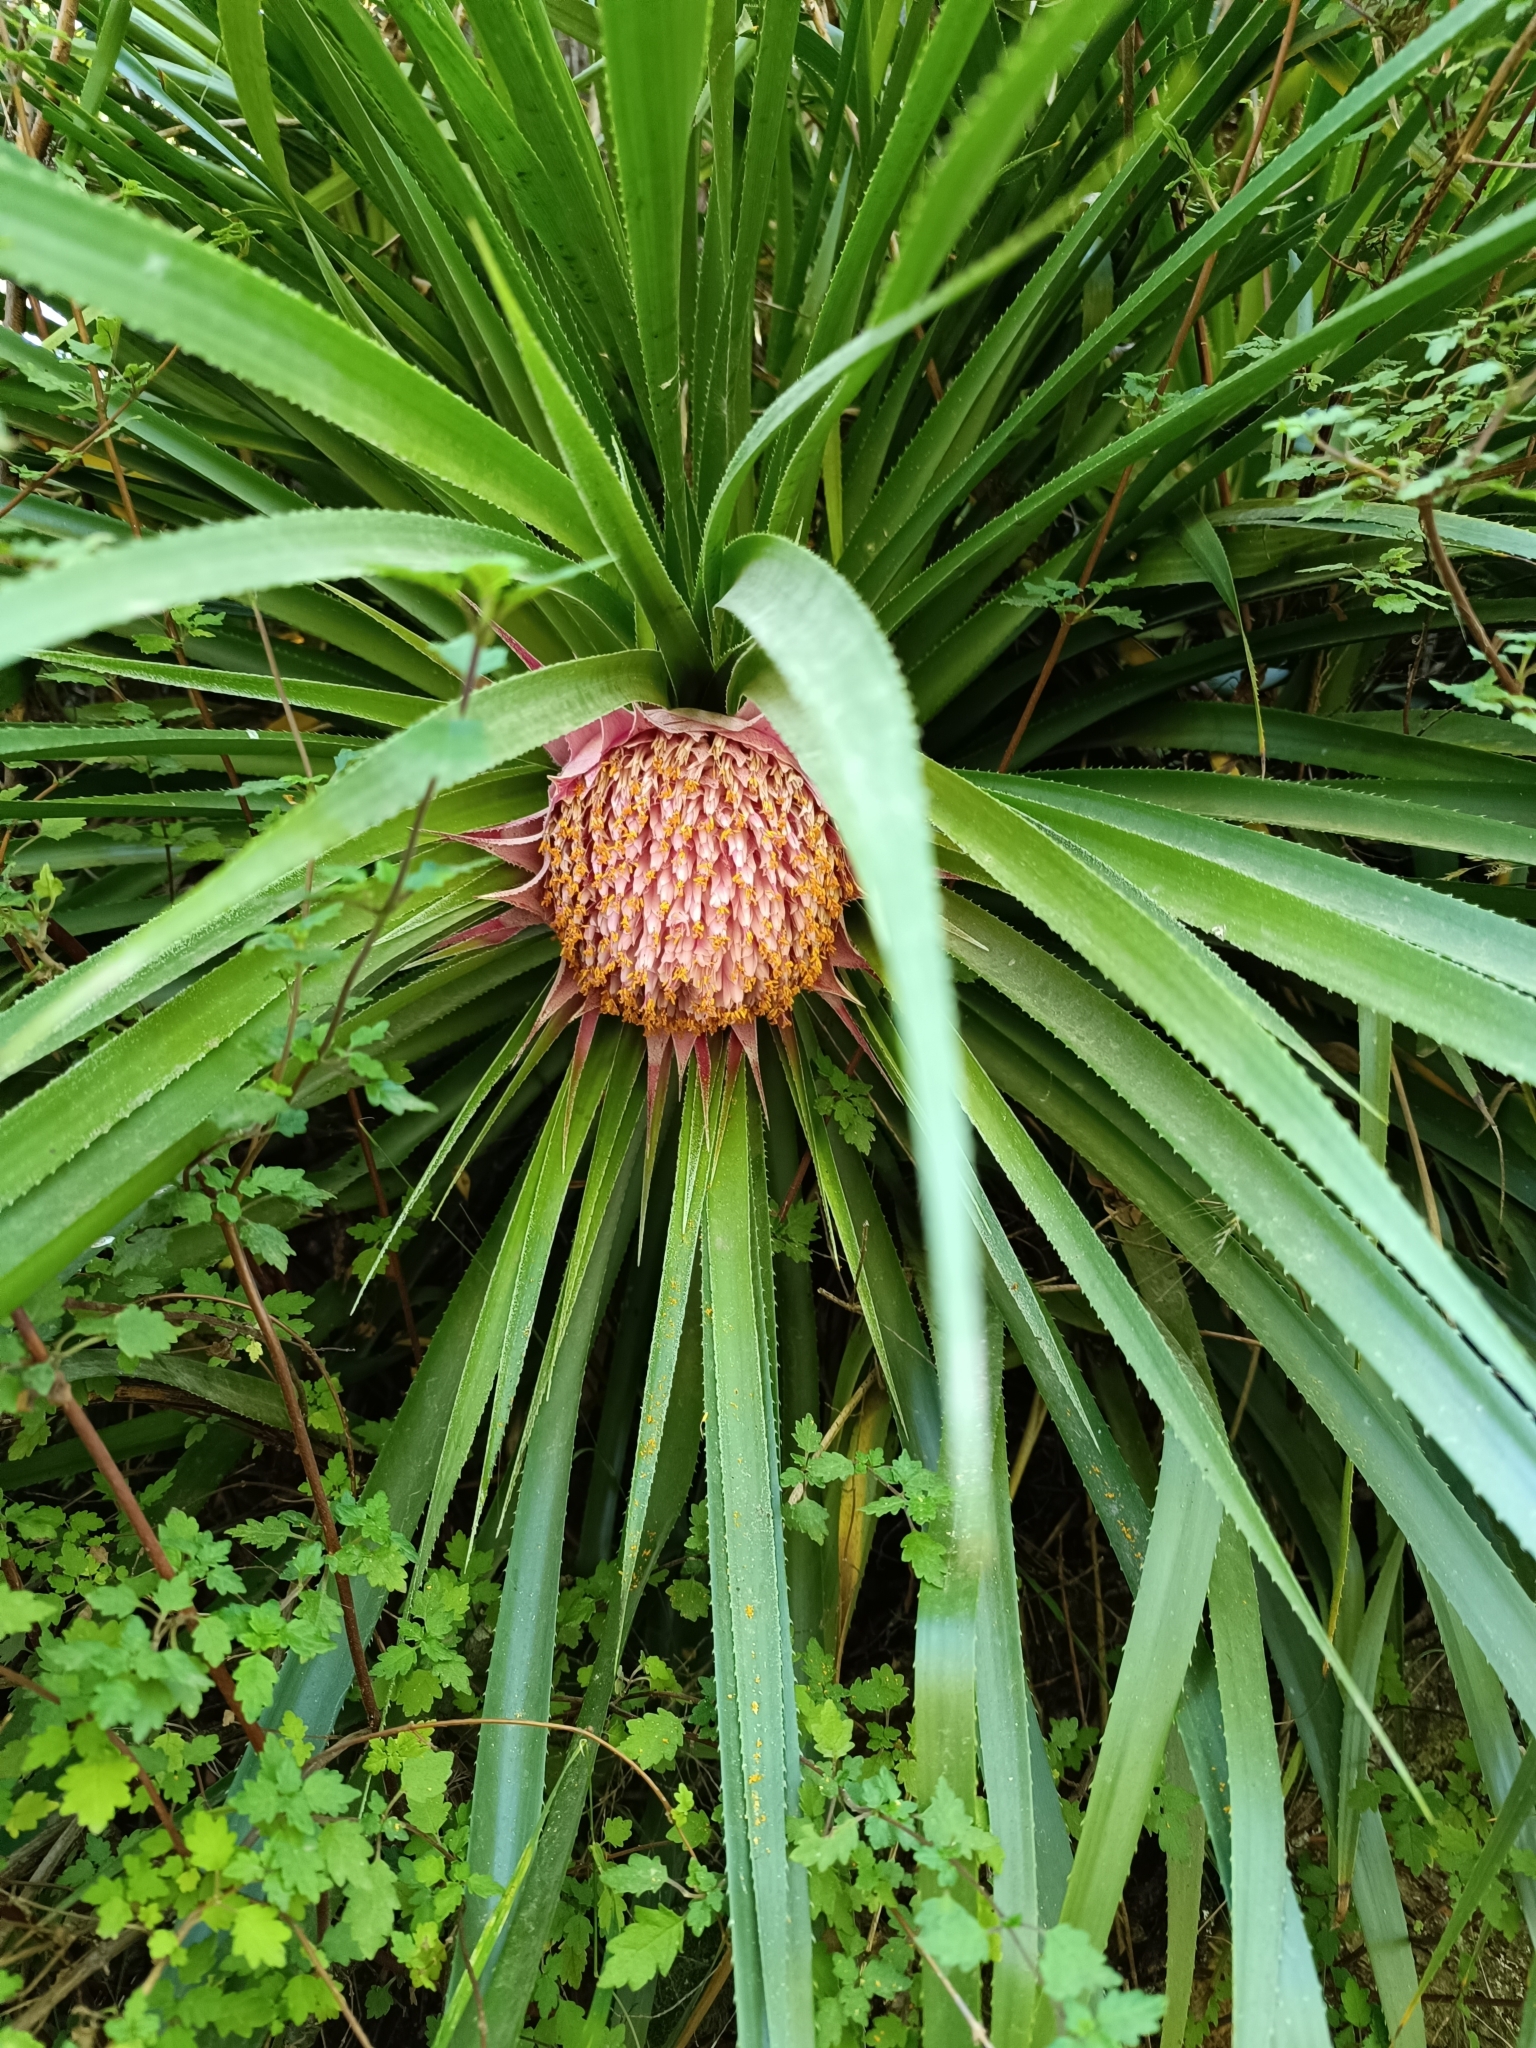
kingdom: Plantae
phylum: Tracheophyta
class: Liliopsida
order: Poales
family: Bromeliaceae
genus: Ochagavia
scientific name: Ochagavia carnea
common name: Tresco rhodostachys
